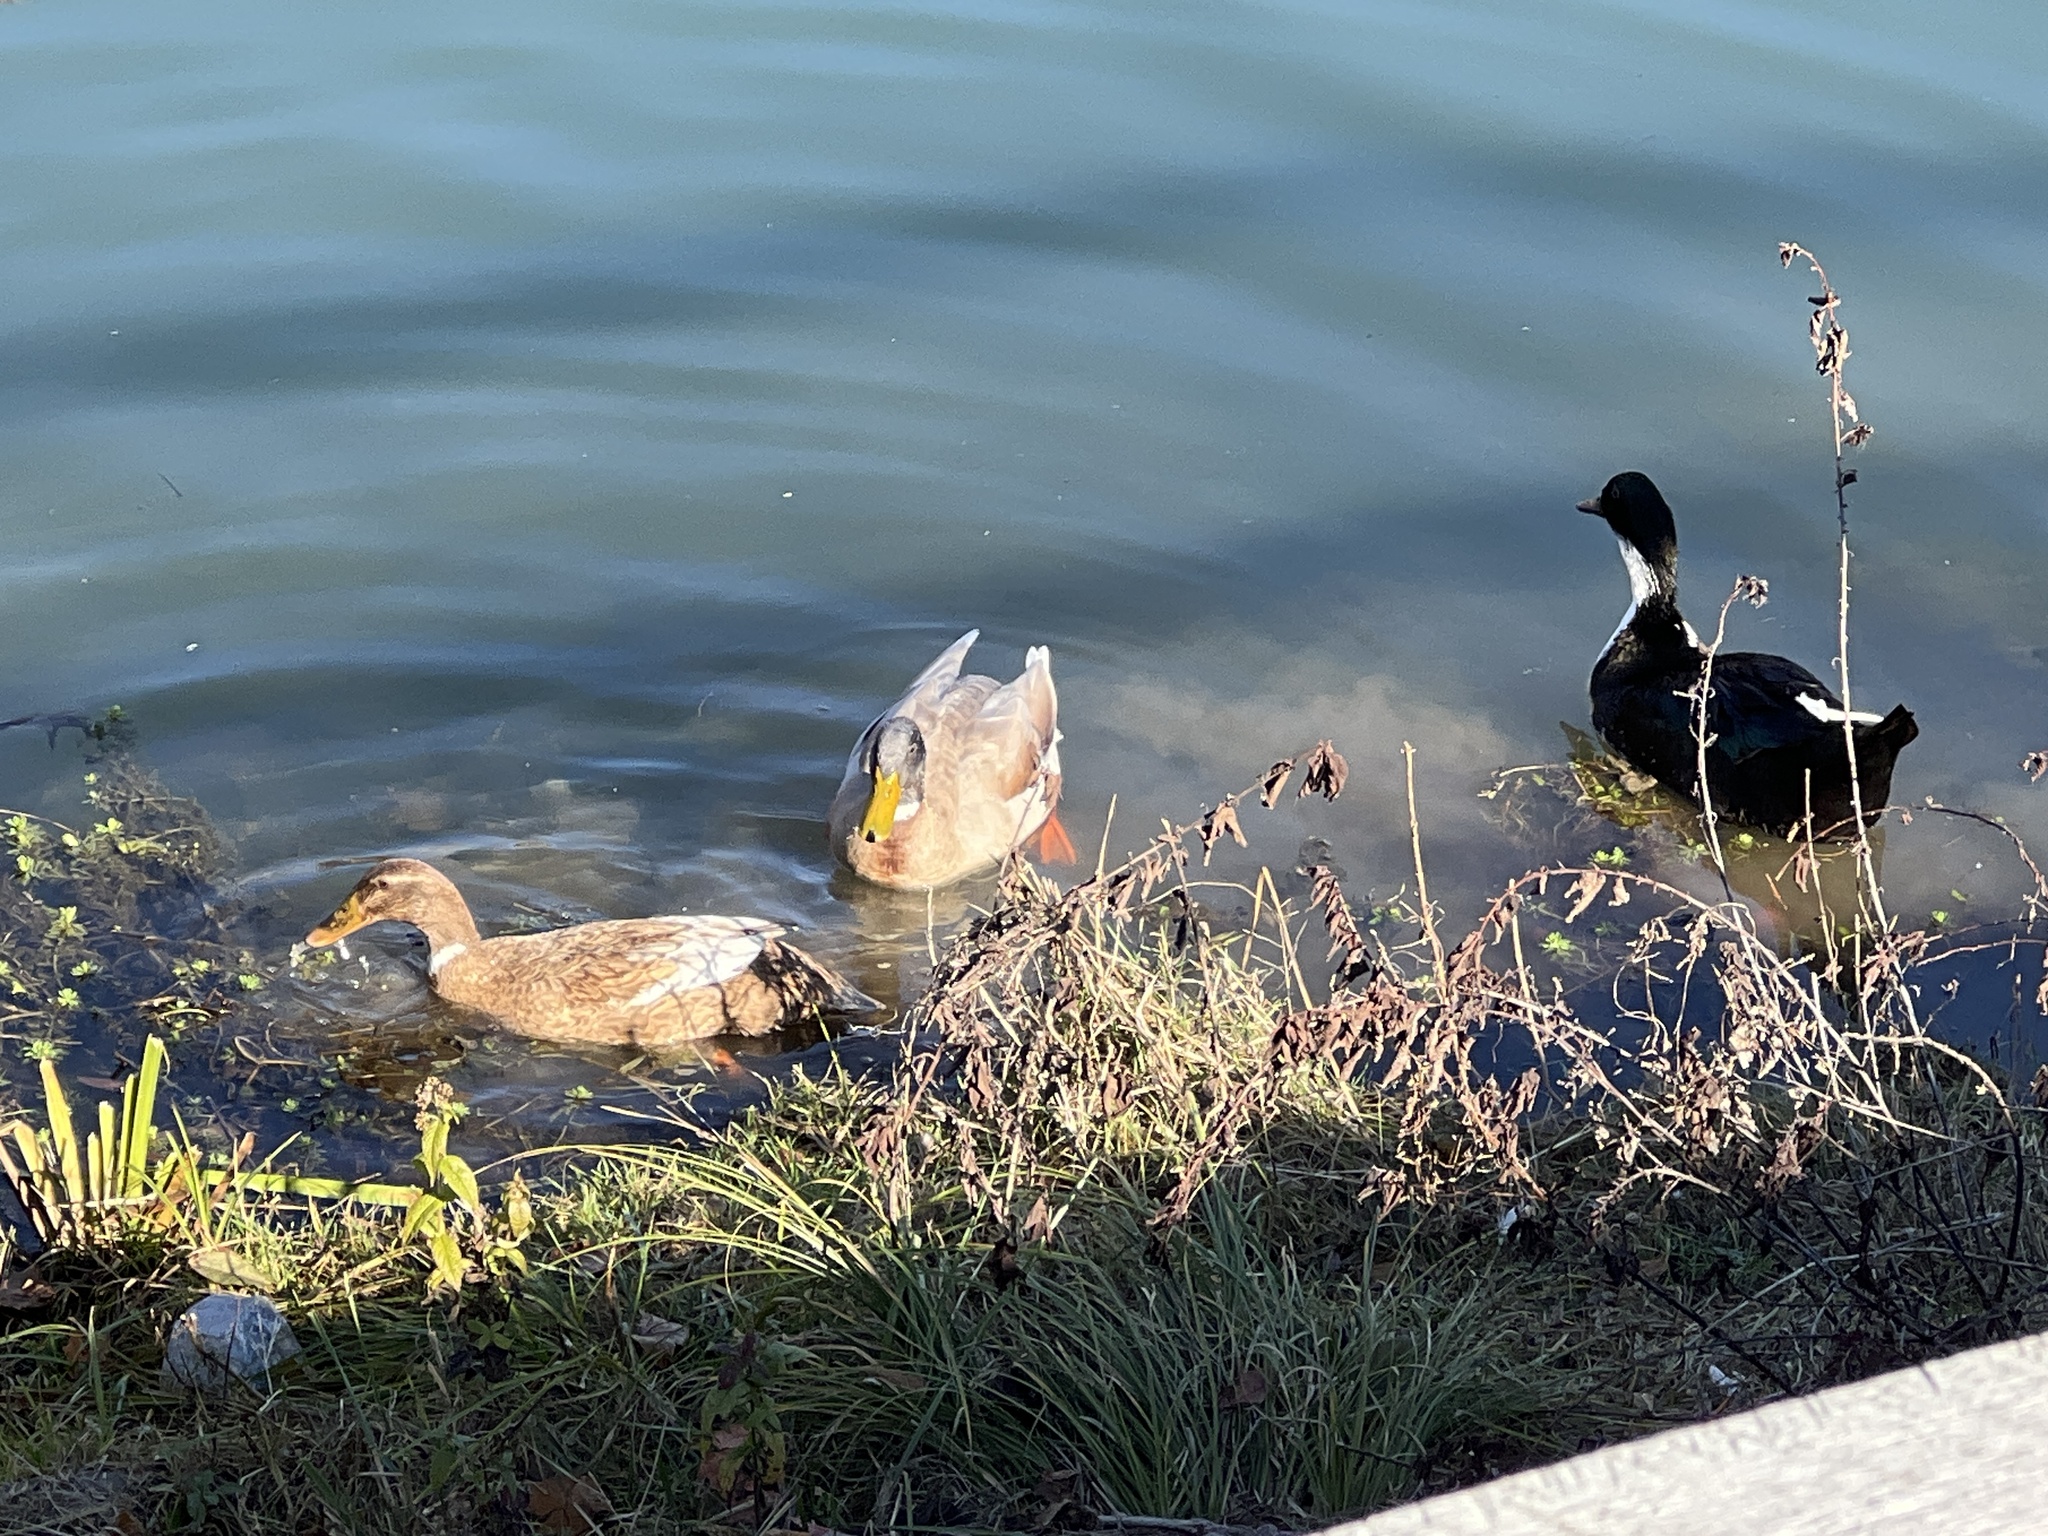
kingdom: Animalia
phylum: Chordata
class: Aves
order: Anseriformes
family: Anatidae
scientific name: Anatidae
